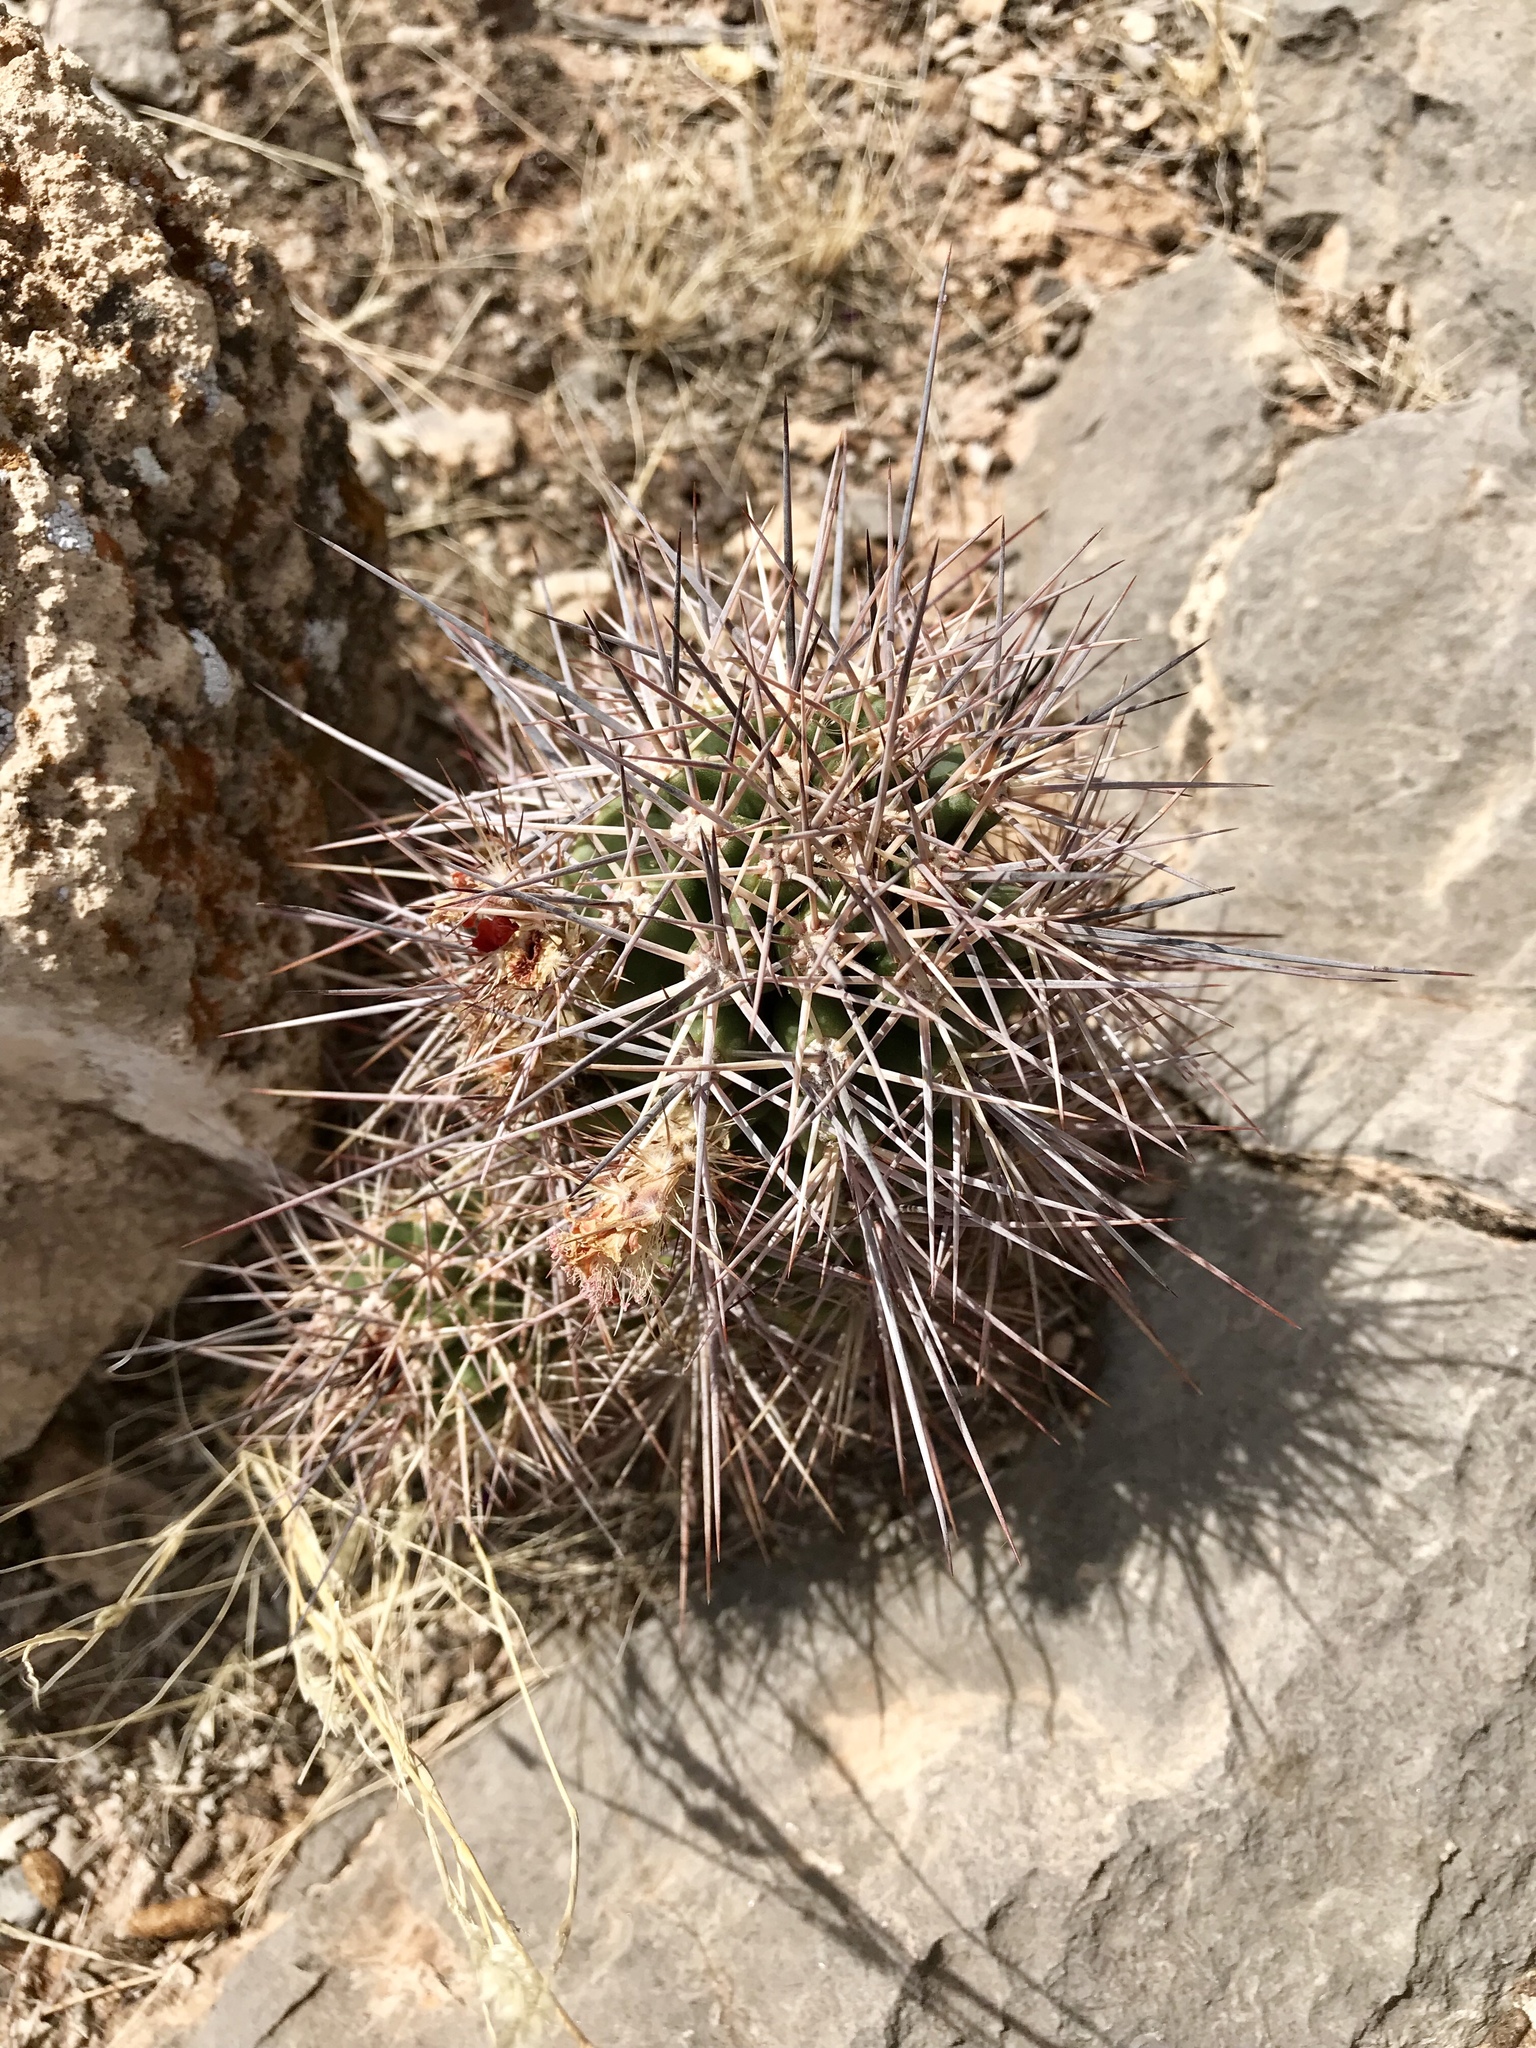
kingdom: Plantae
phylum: Tracheophyta
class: Magnoliopsida
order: Caryophyllales
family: Cactaceae
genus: Echinocereus
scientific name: Echinocereus coccineus
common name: Scarlet hedgehog cactus
